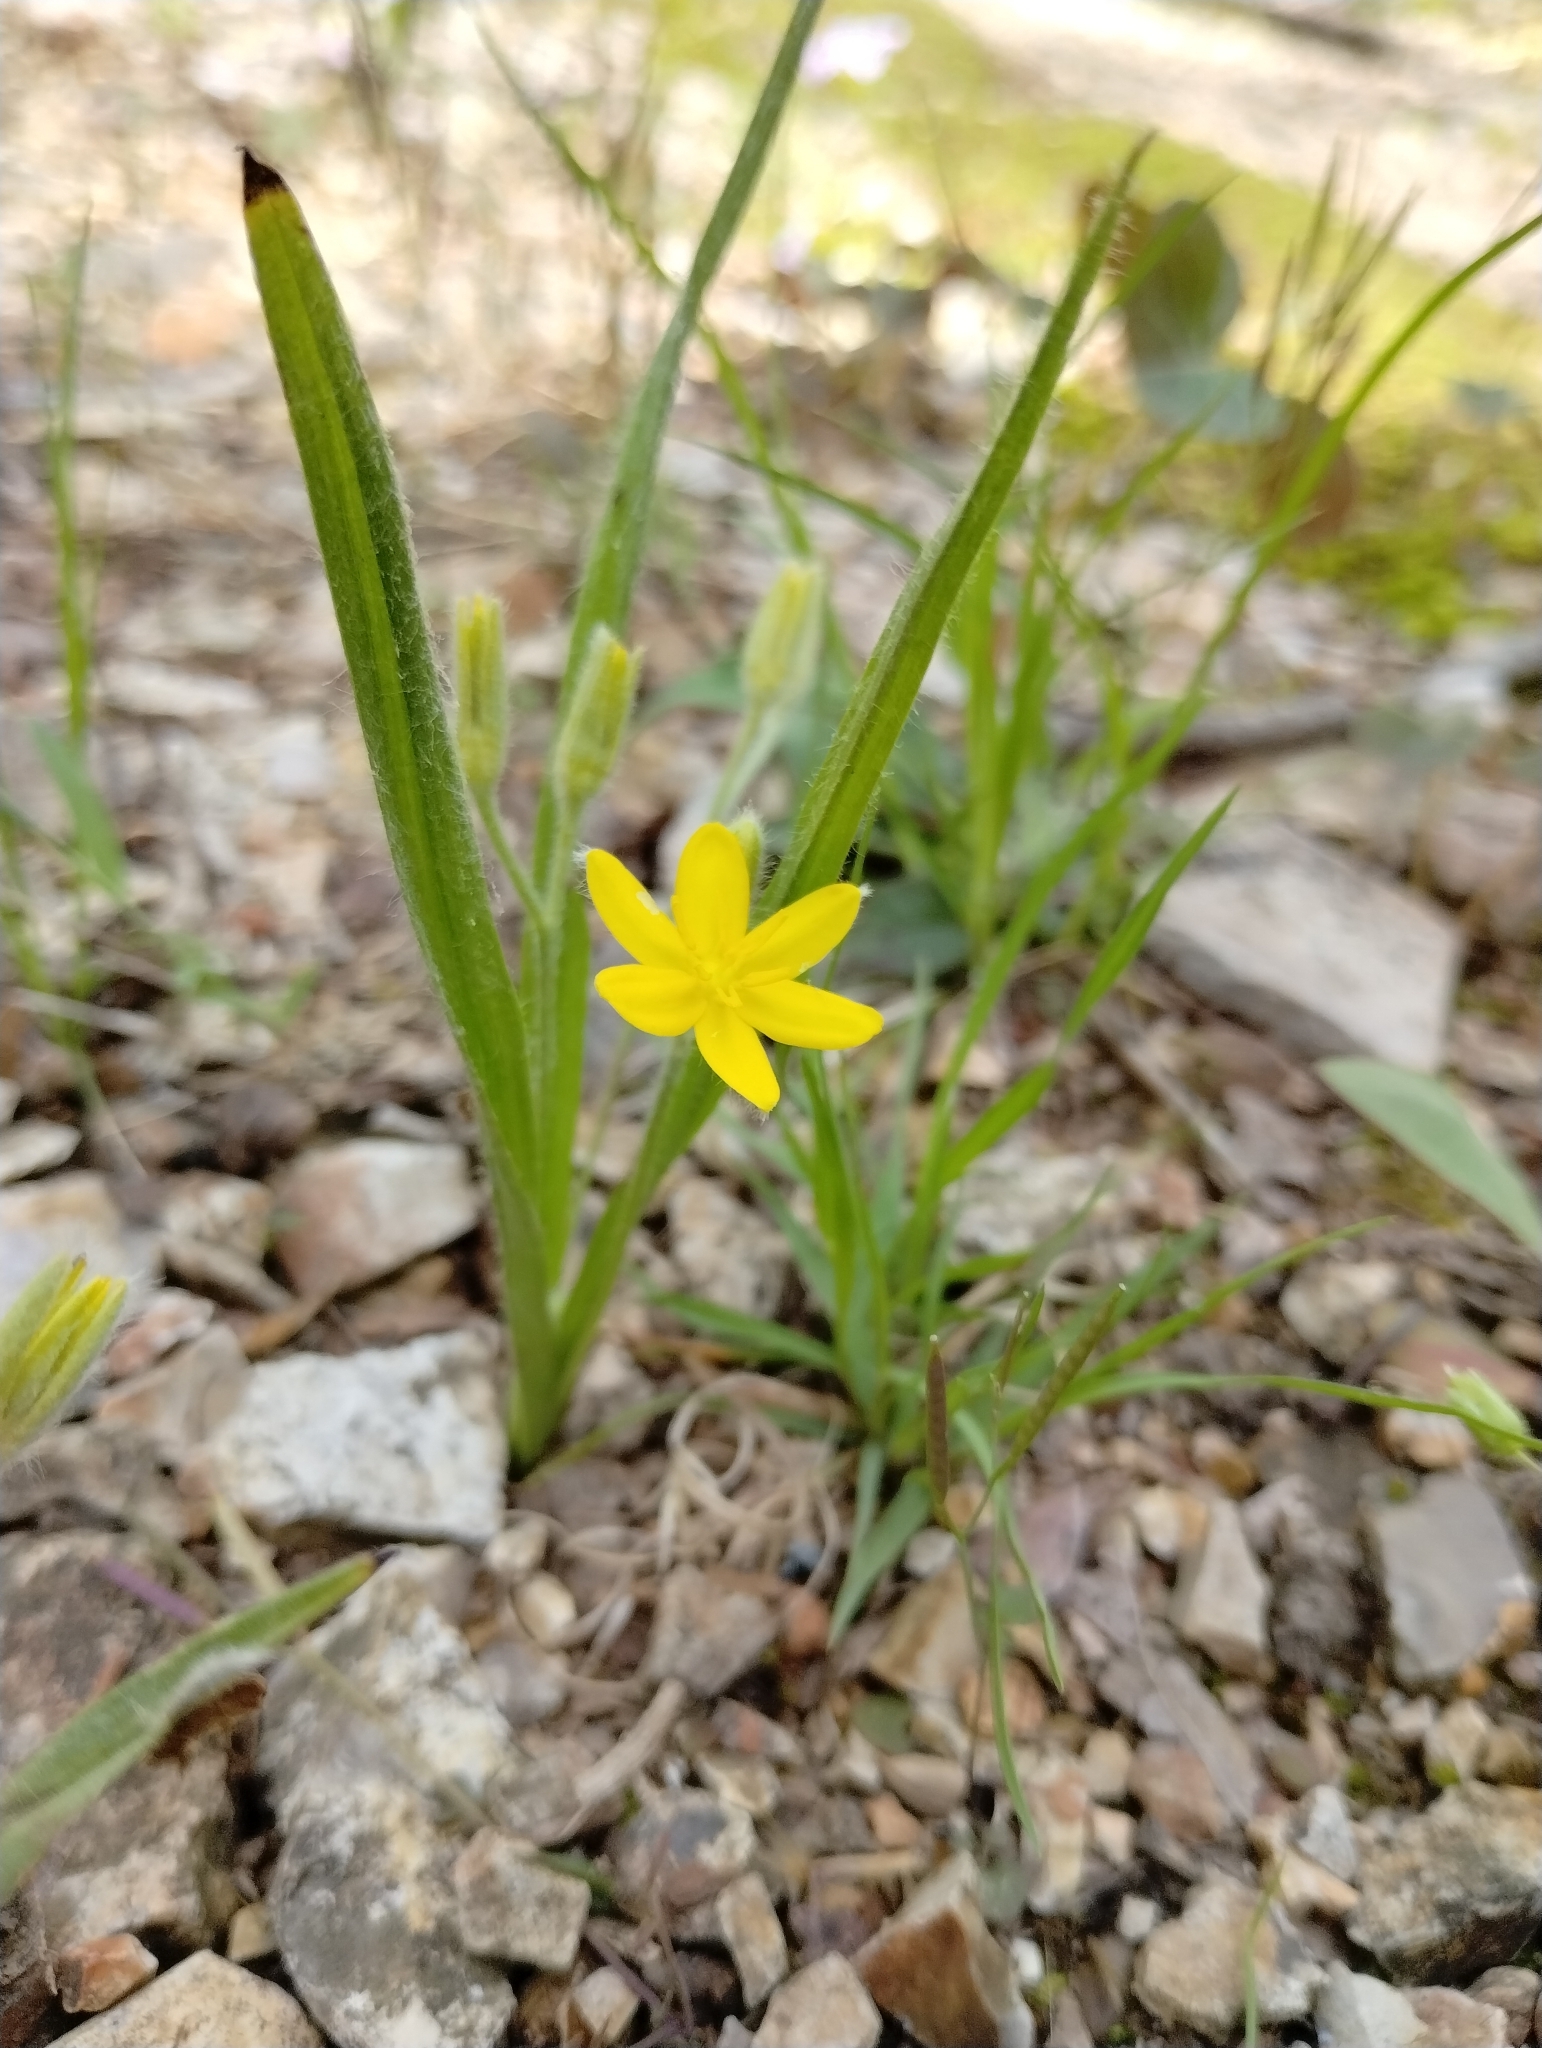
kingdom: Plantae
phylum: Tracheophyta
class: Liliopsida
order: Asparagales
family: Hypoxidaceae
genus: Hypoxis
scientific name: Hypoxis hirsuta
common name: Common goldstar
